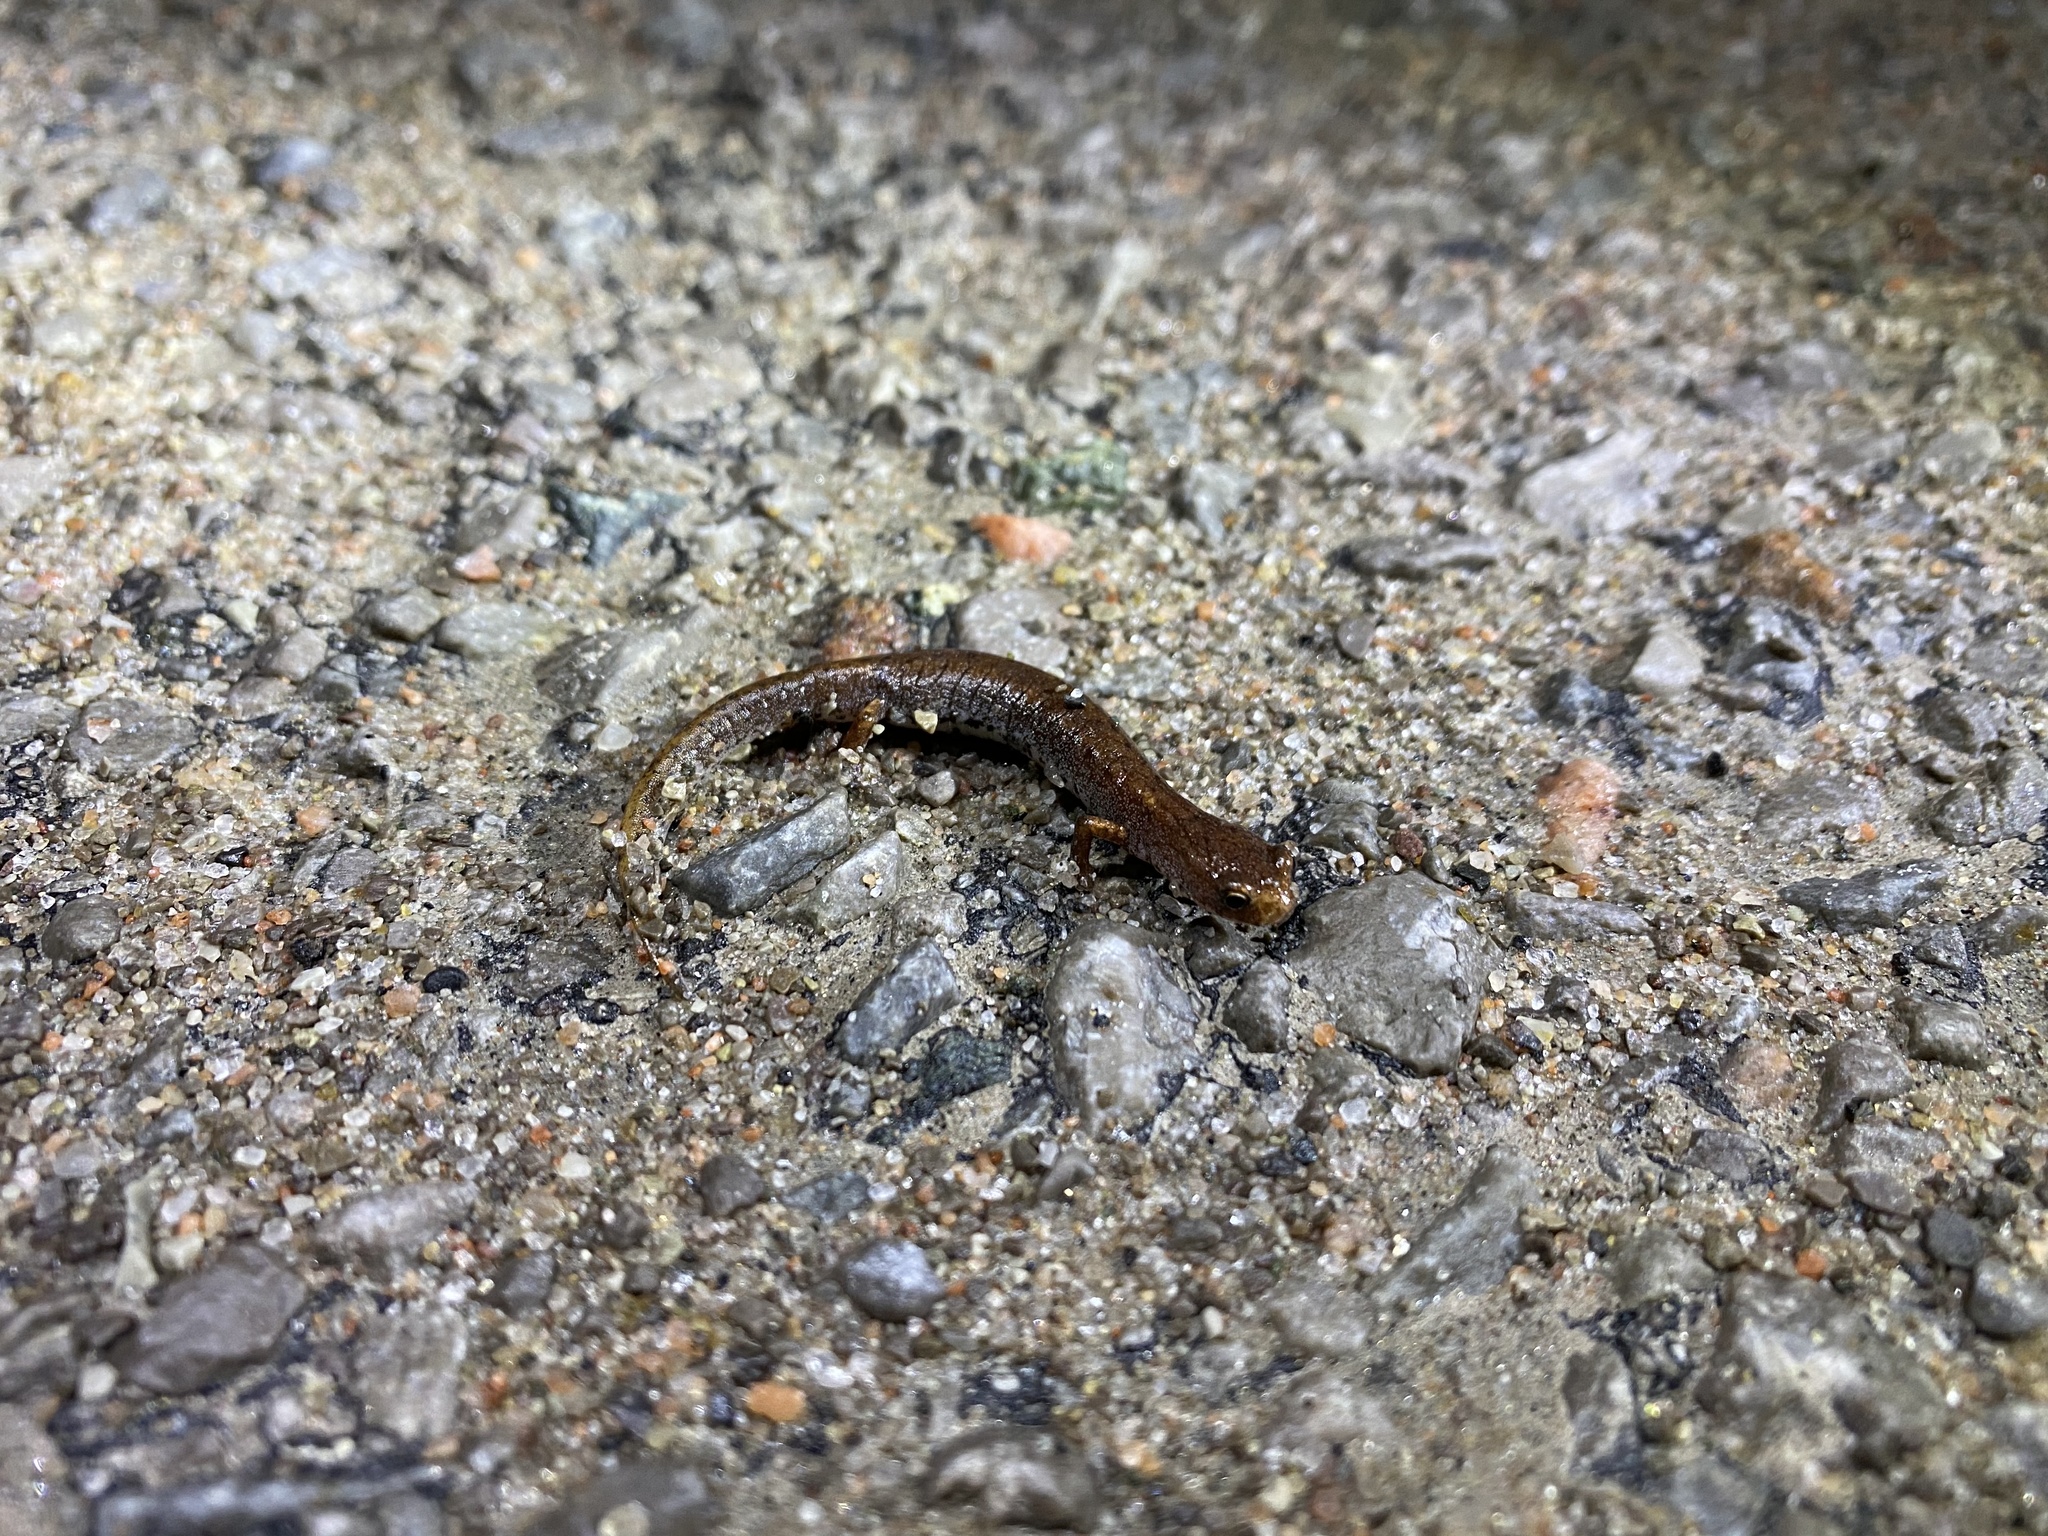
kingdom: Animalia
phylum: Chordata
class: Amphibia
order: Caudata
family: Plethodontidae
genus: Hemidactylium
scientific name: Hemidactylium scutatum
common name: Four-toed salamander
